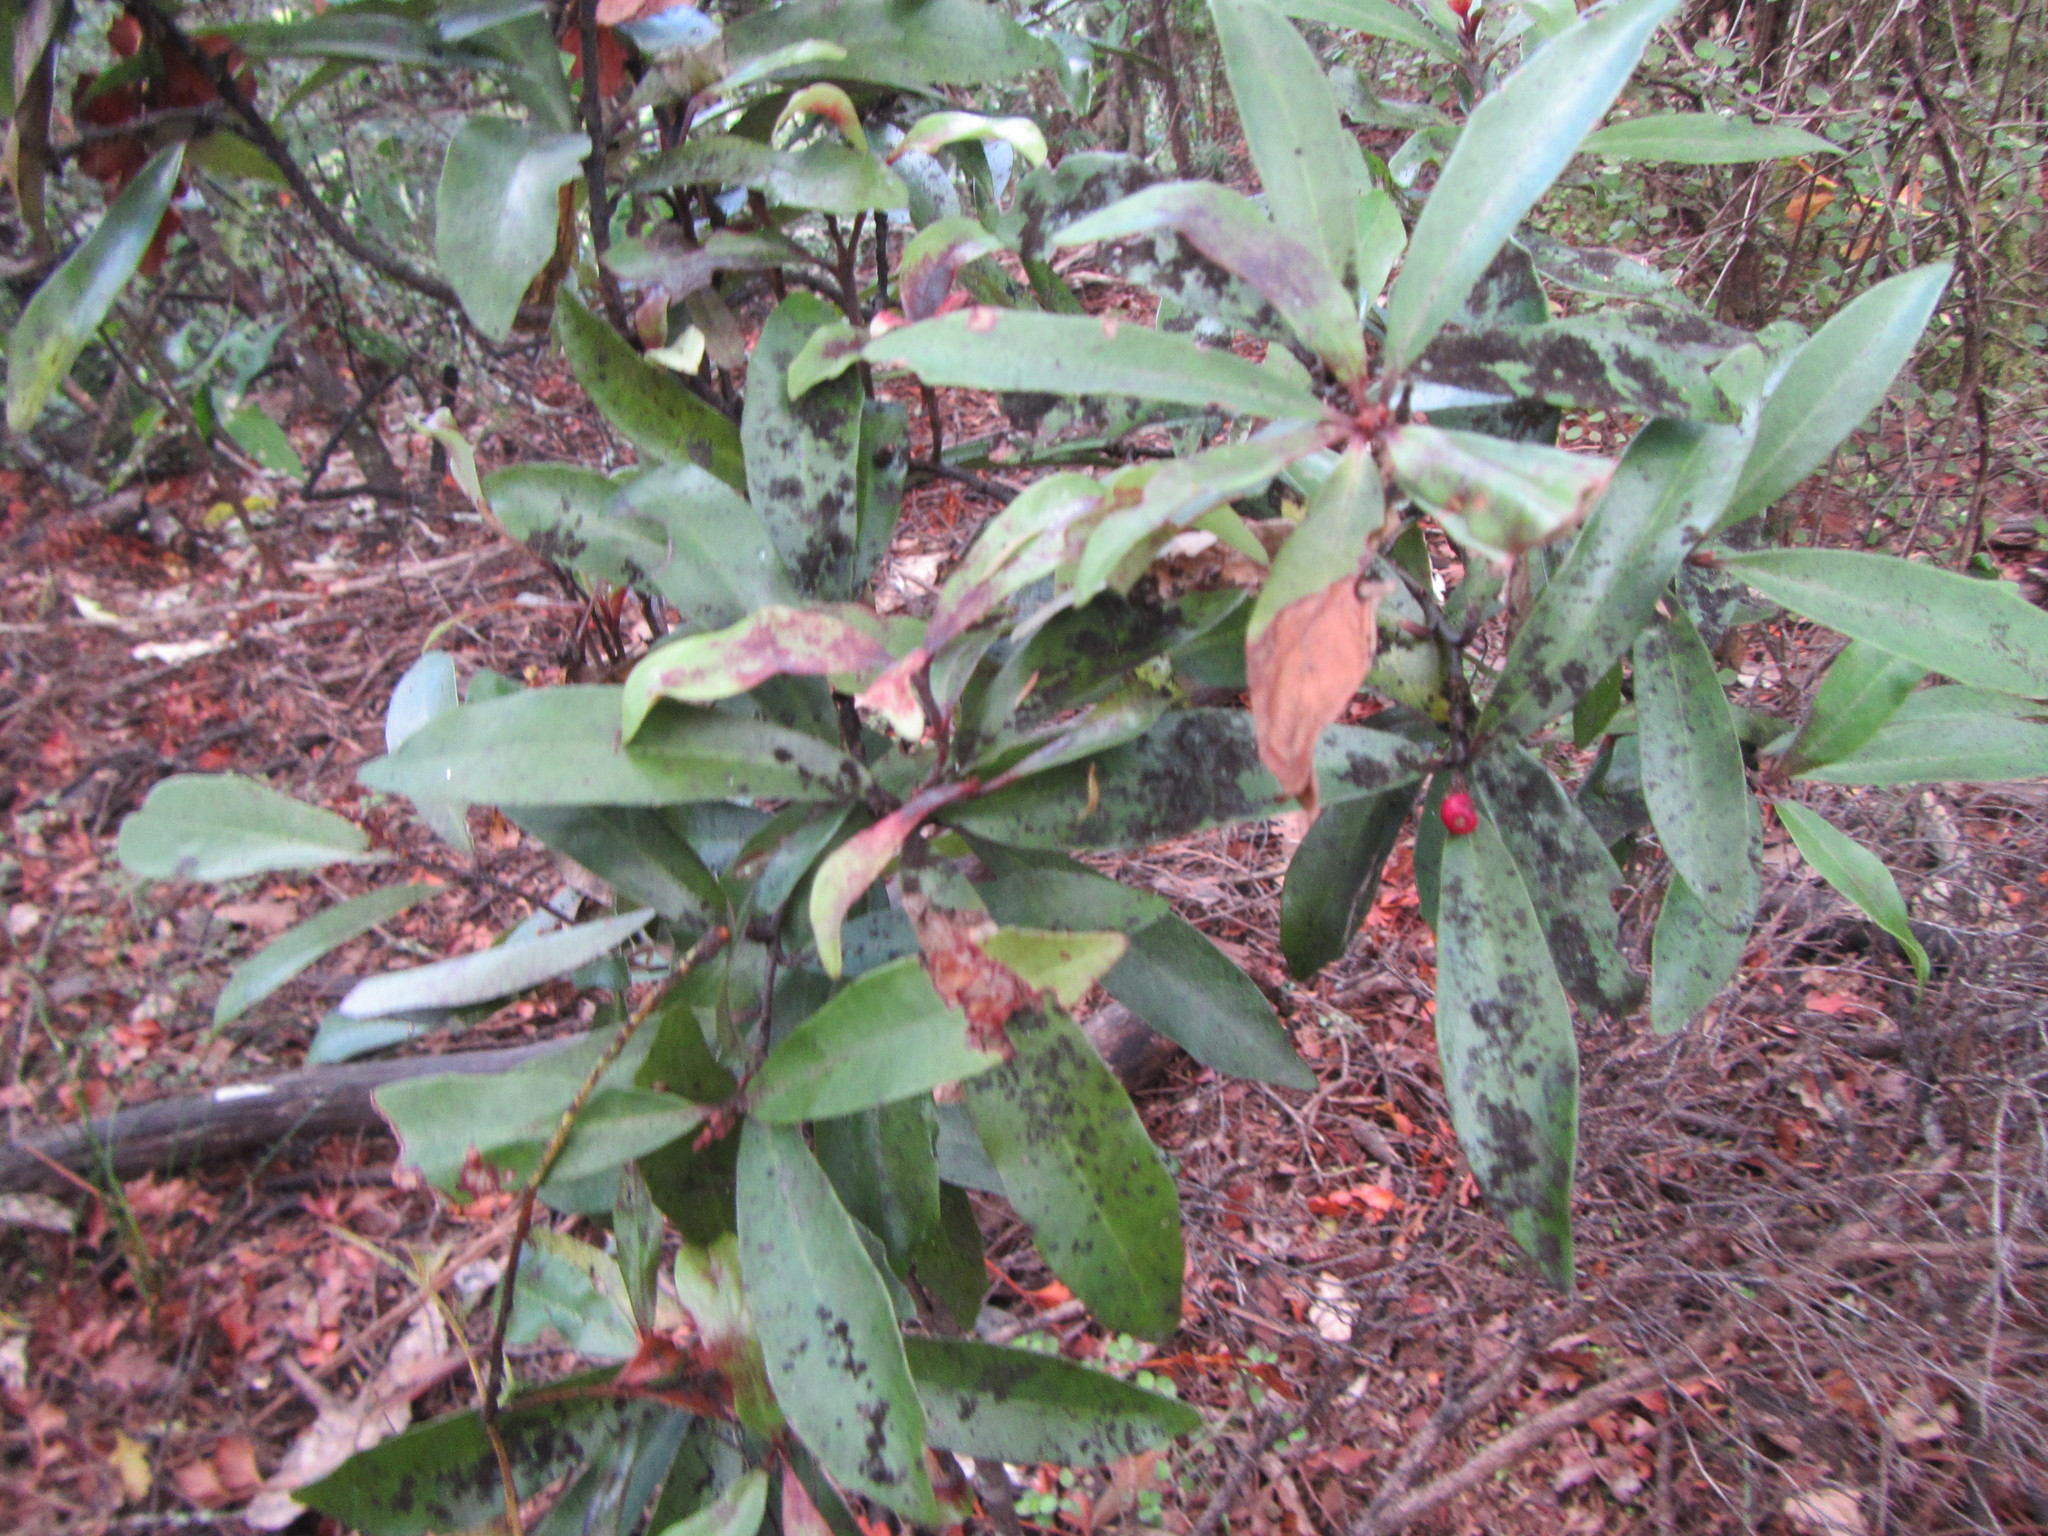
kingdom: Plantae
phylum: Tracheophyta
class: Magnoliopsida
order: Asterales
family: Alseuosmiaceae
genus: Alseuosmia
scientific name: Alseuosmia macrophylla
